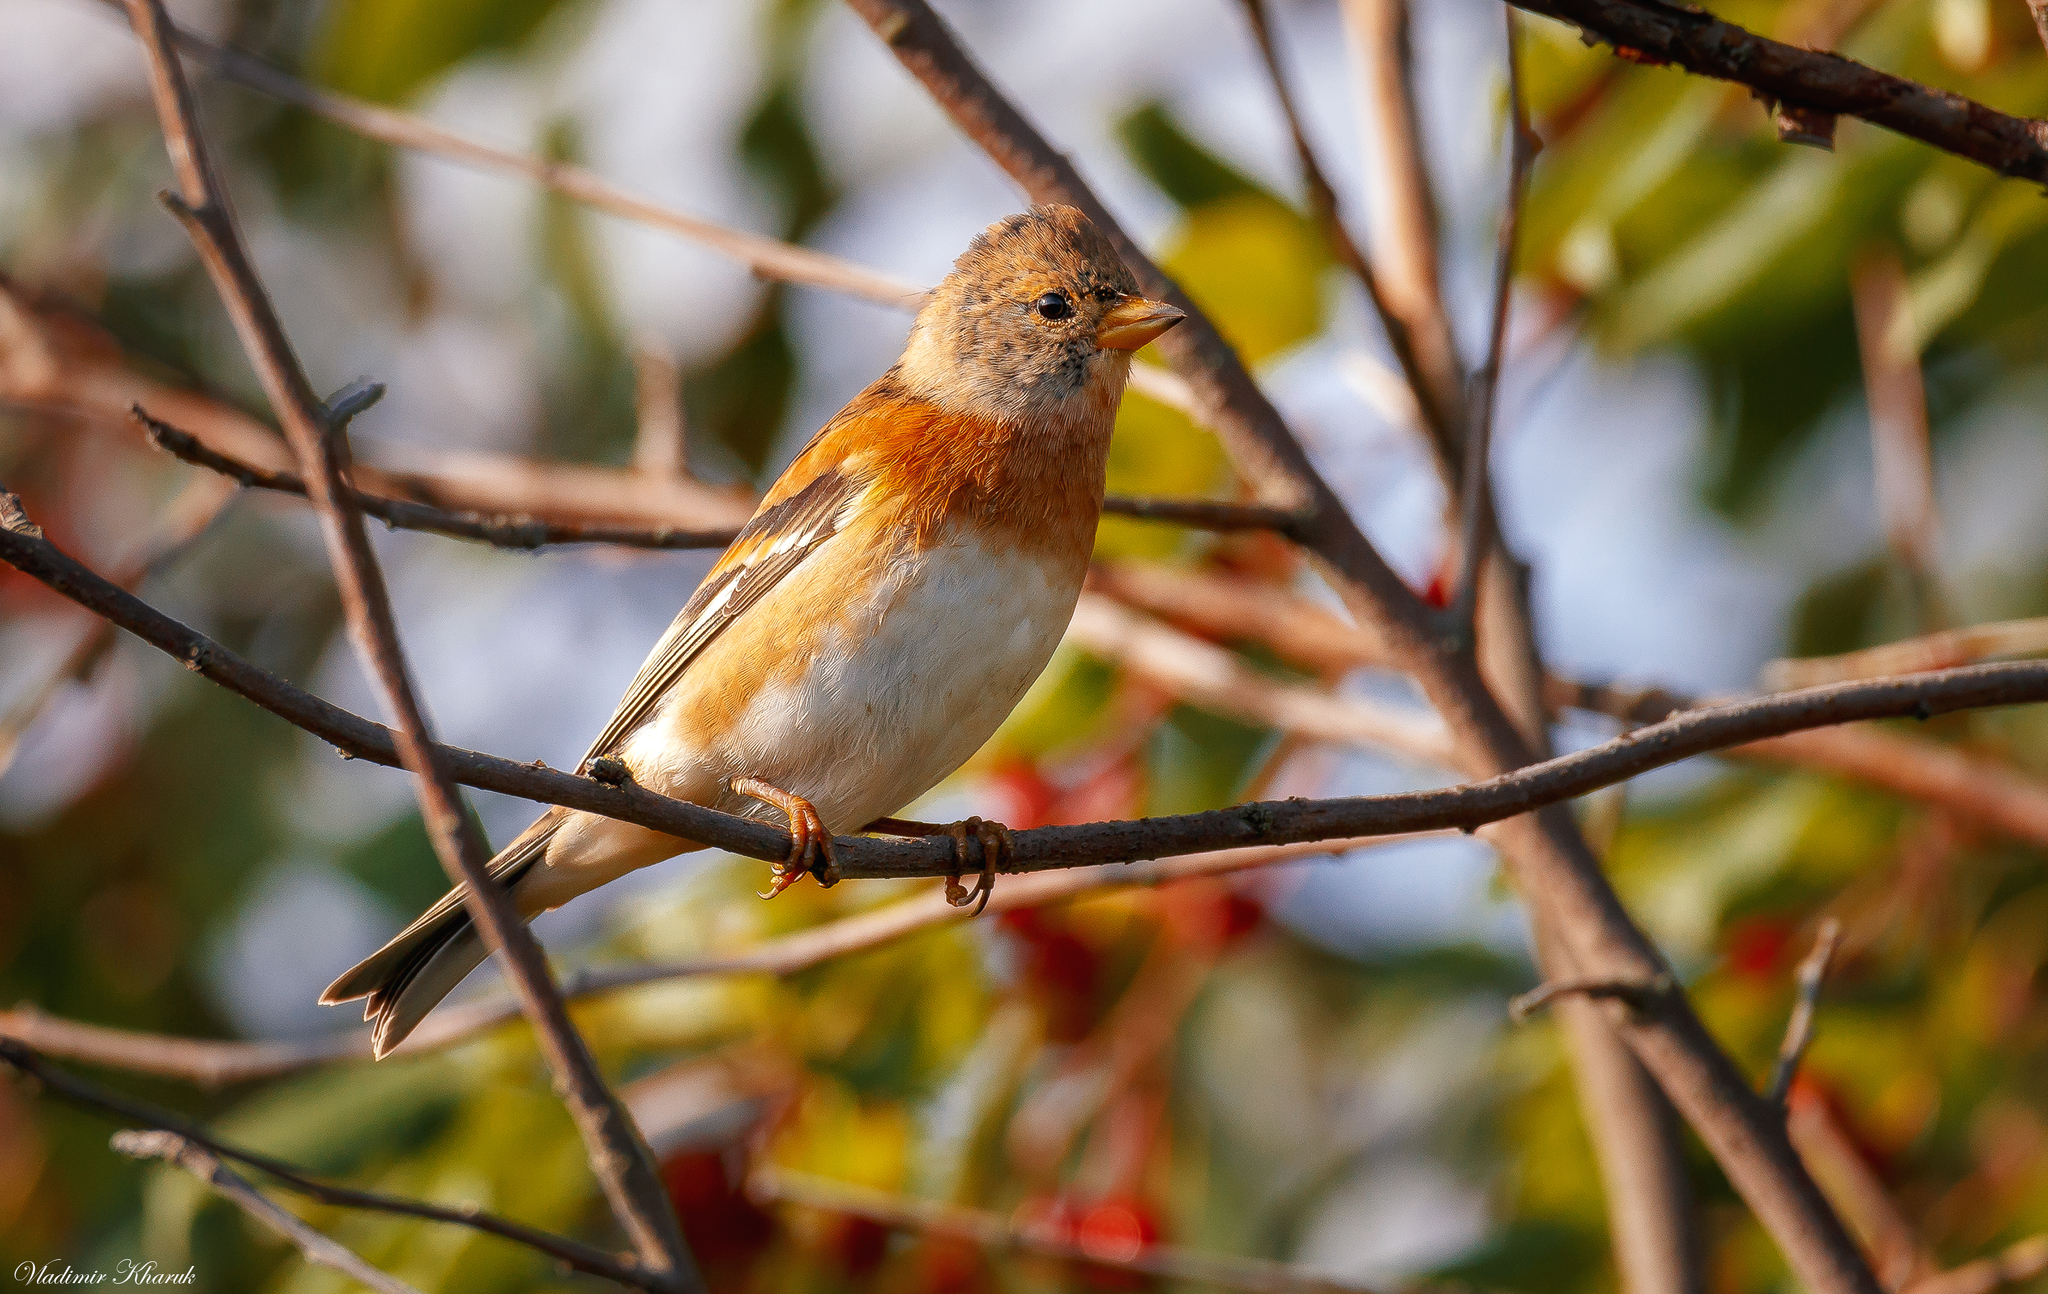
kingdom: Animalia
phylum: Chordata
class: Aves
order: Passeriformes
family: Fringillidae
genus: Fringilla
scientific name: Fringilla montifringilla
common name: Brambling
